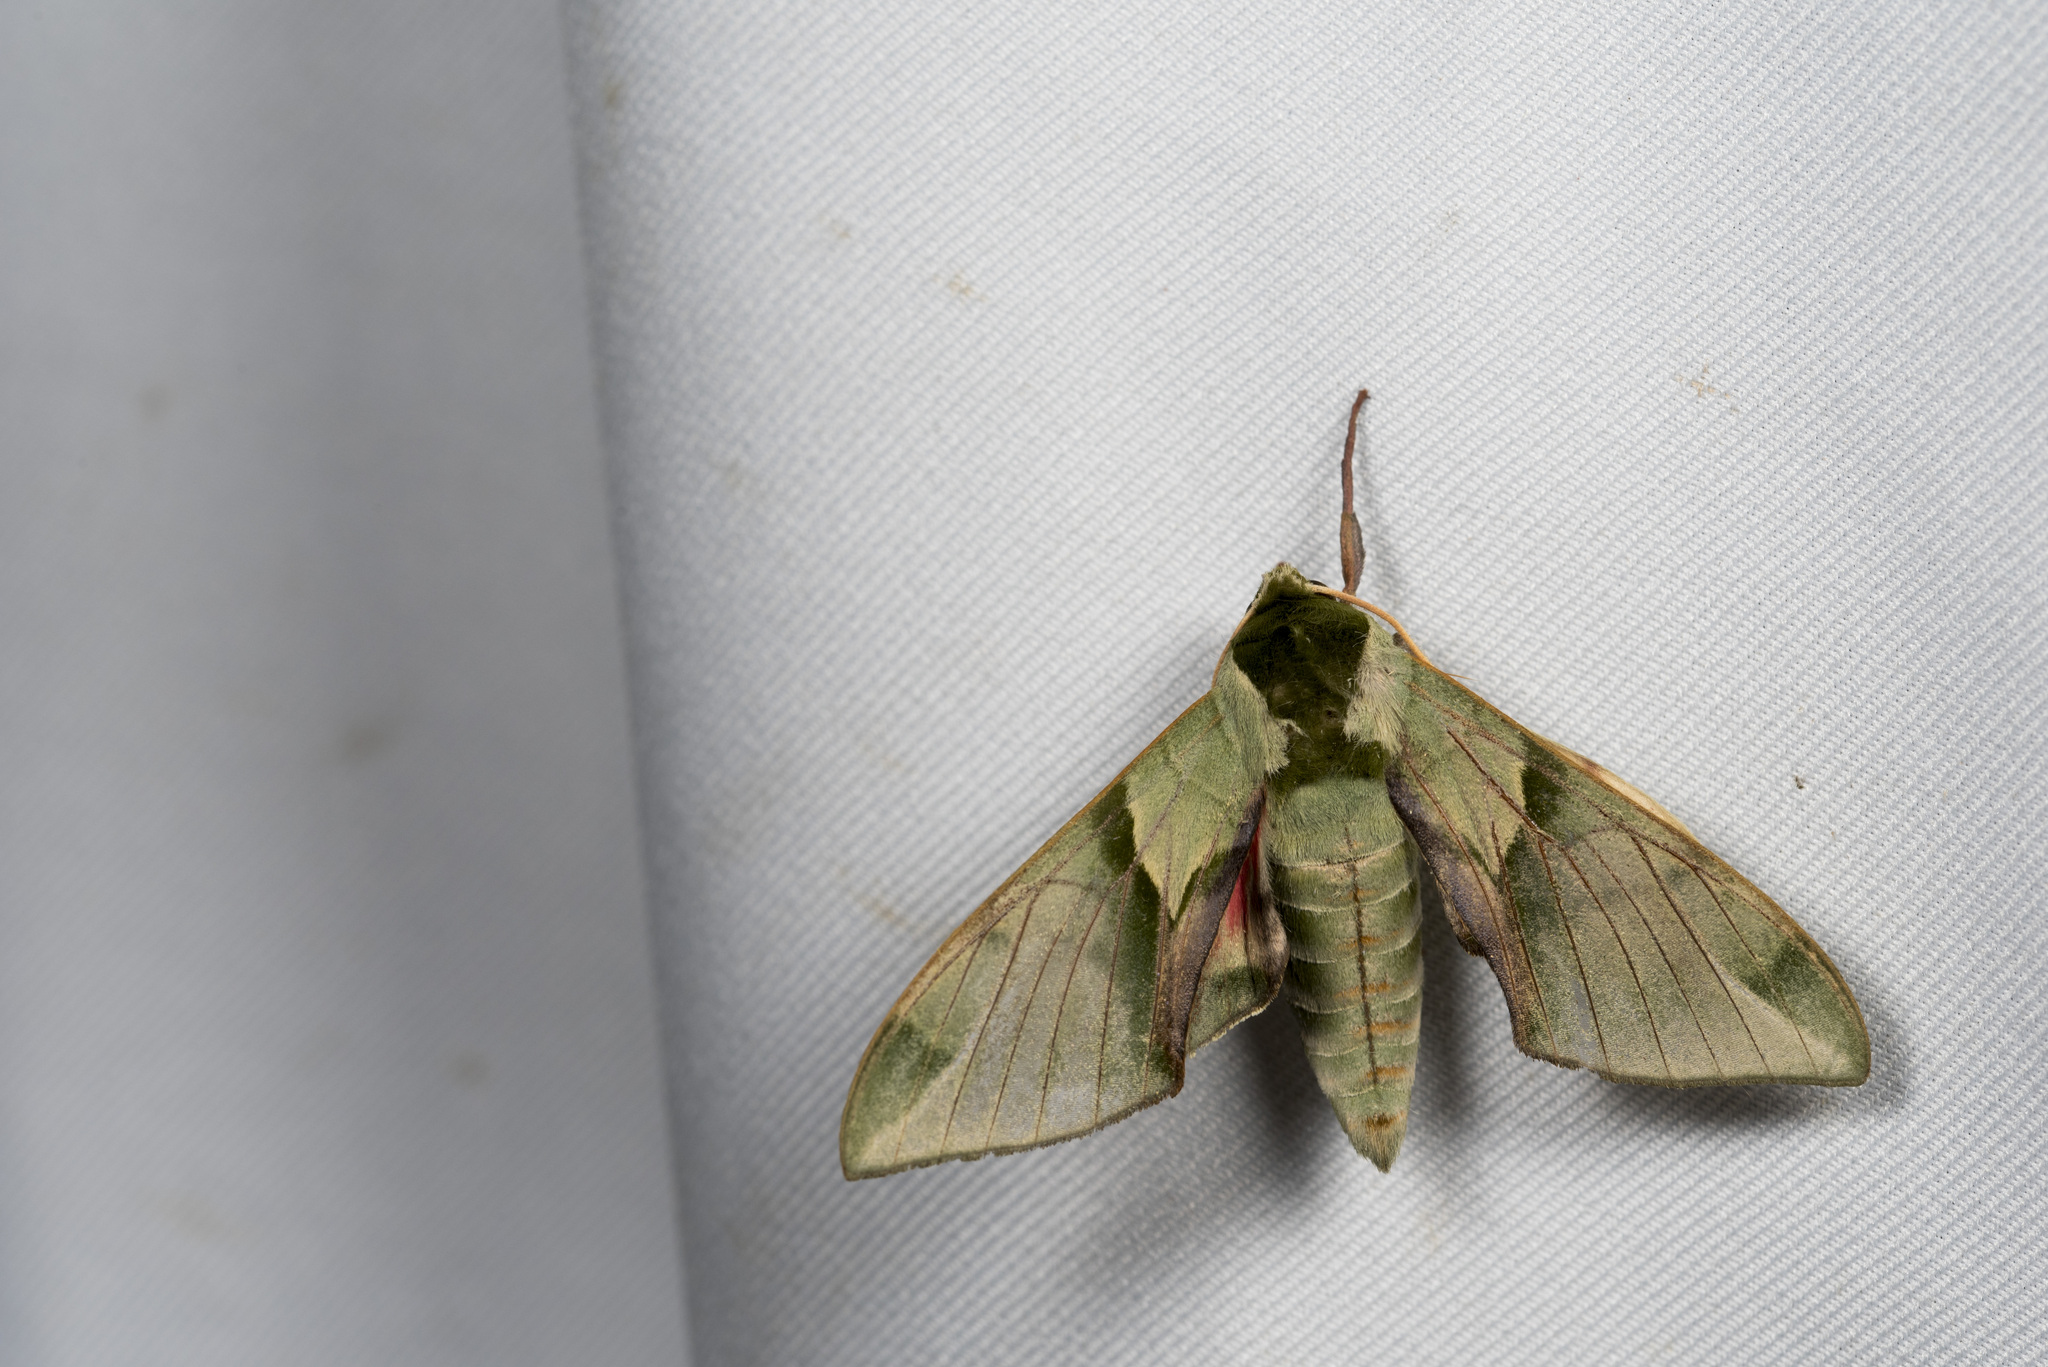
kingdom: Animalia
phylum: Arthropoda
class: Insecta
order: Lepidoptera
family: Sphingidae
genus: Callambulyx
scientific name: Callambulyx tatarinovii
